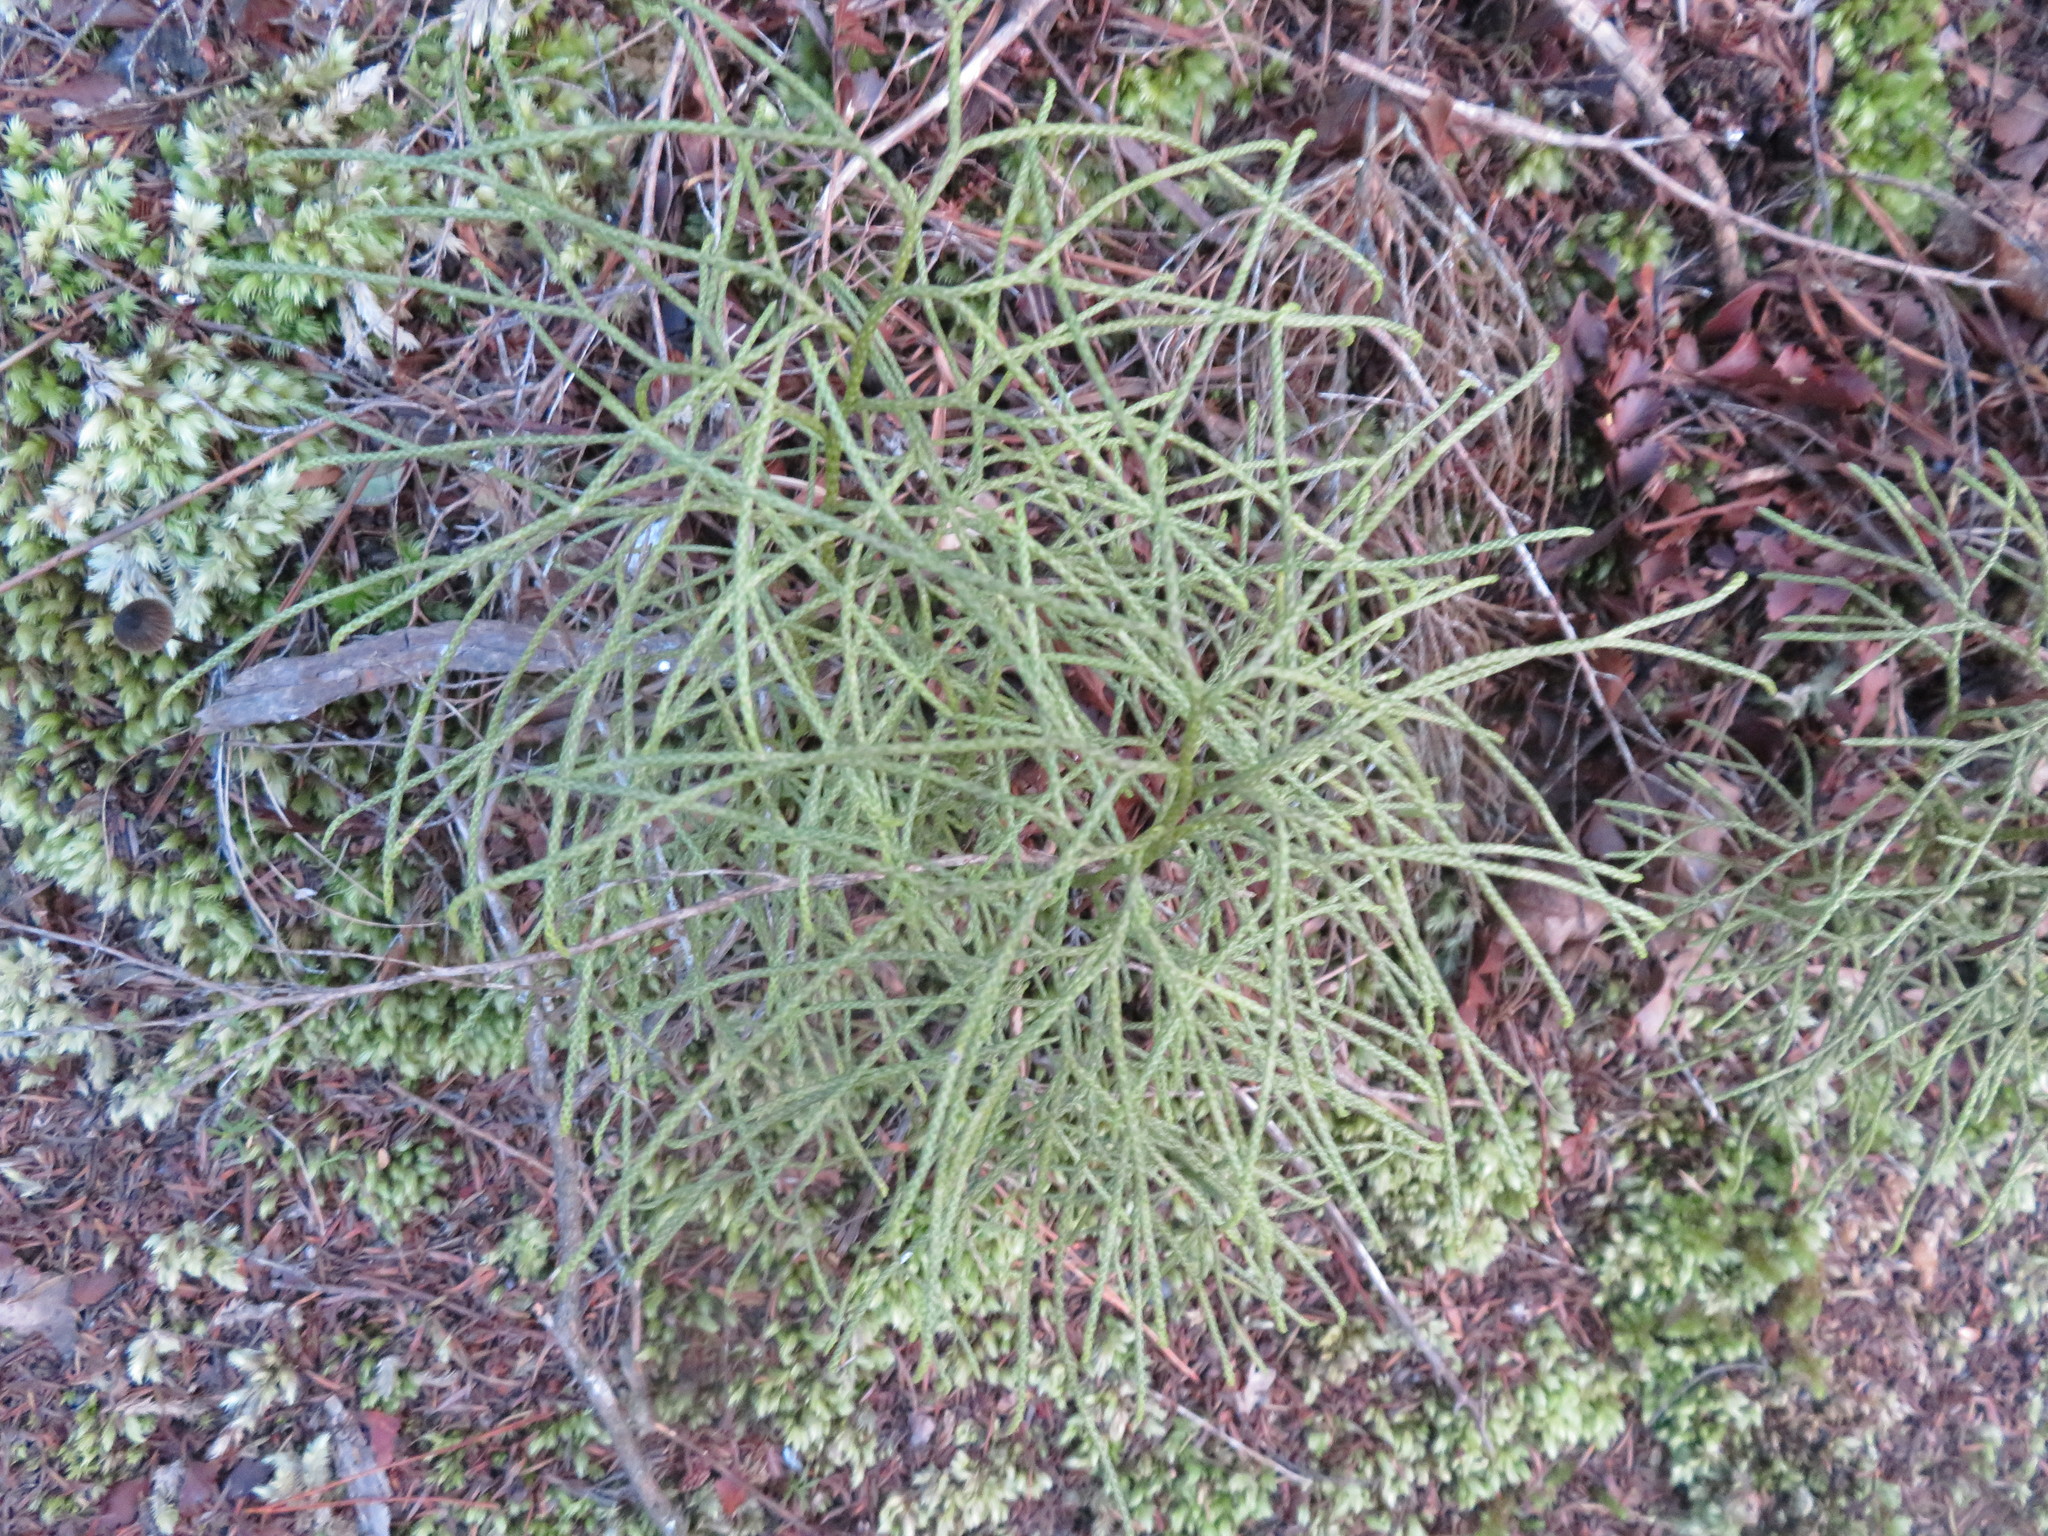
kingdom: Plantae
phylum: Tracheophyta
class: Lycopodiopsida
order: Lycopodiales
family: Lycopodiaceae
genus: Pseudolycopodium
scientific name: Pseudolycopodium densum
